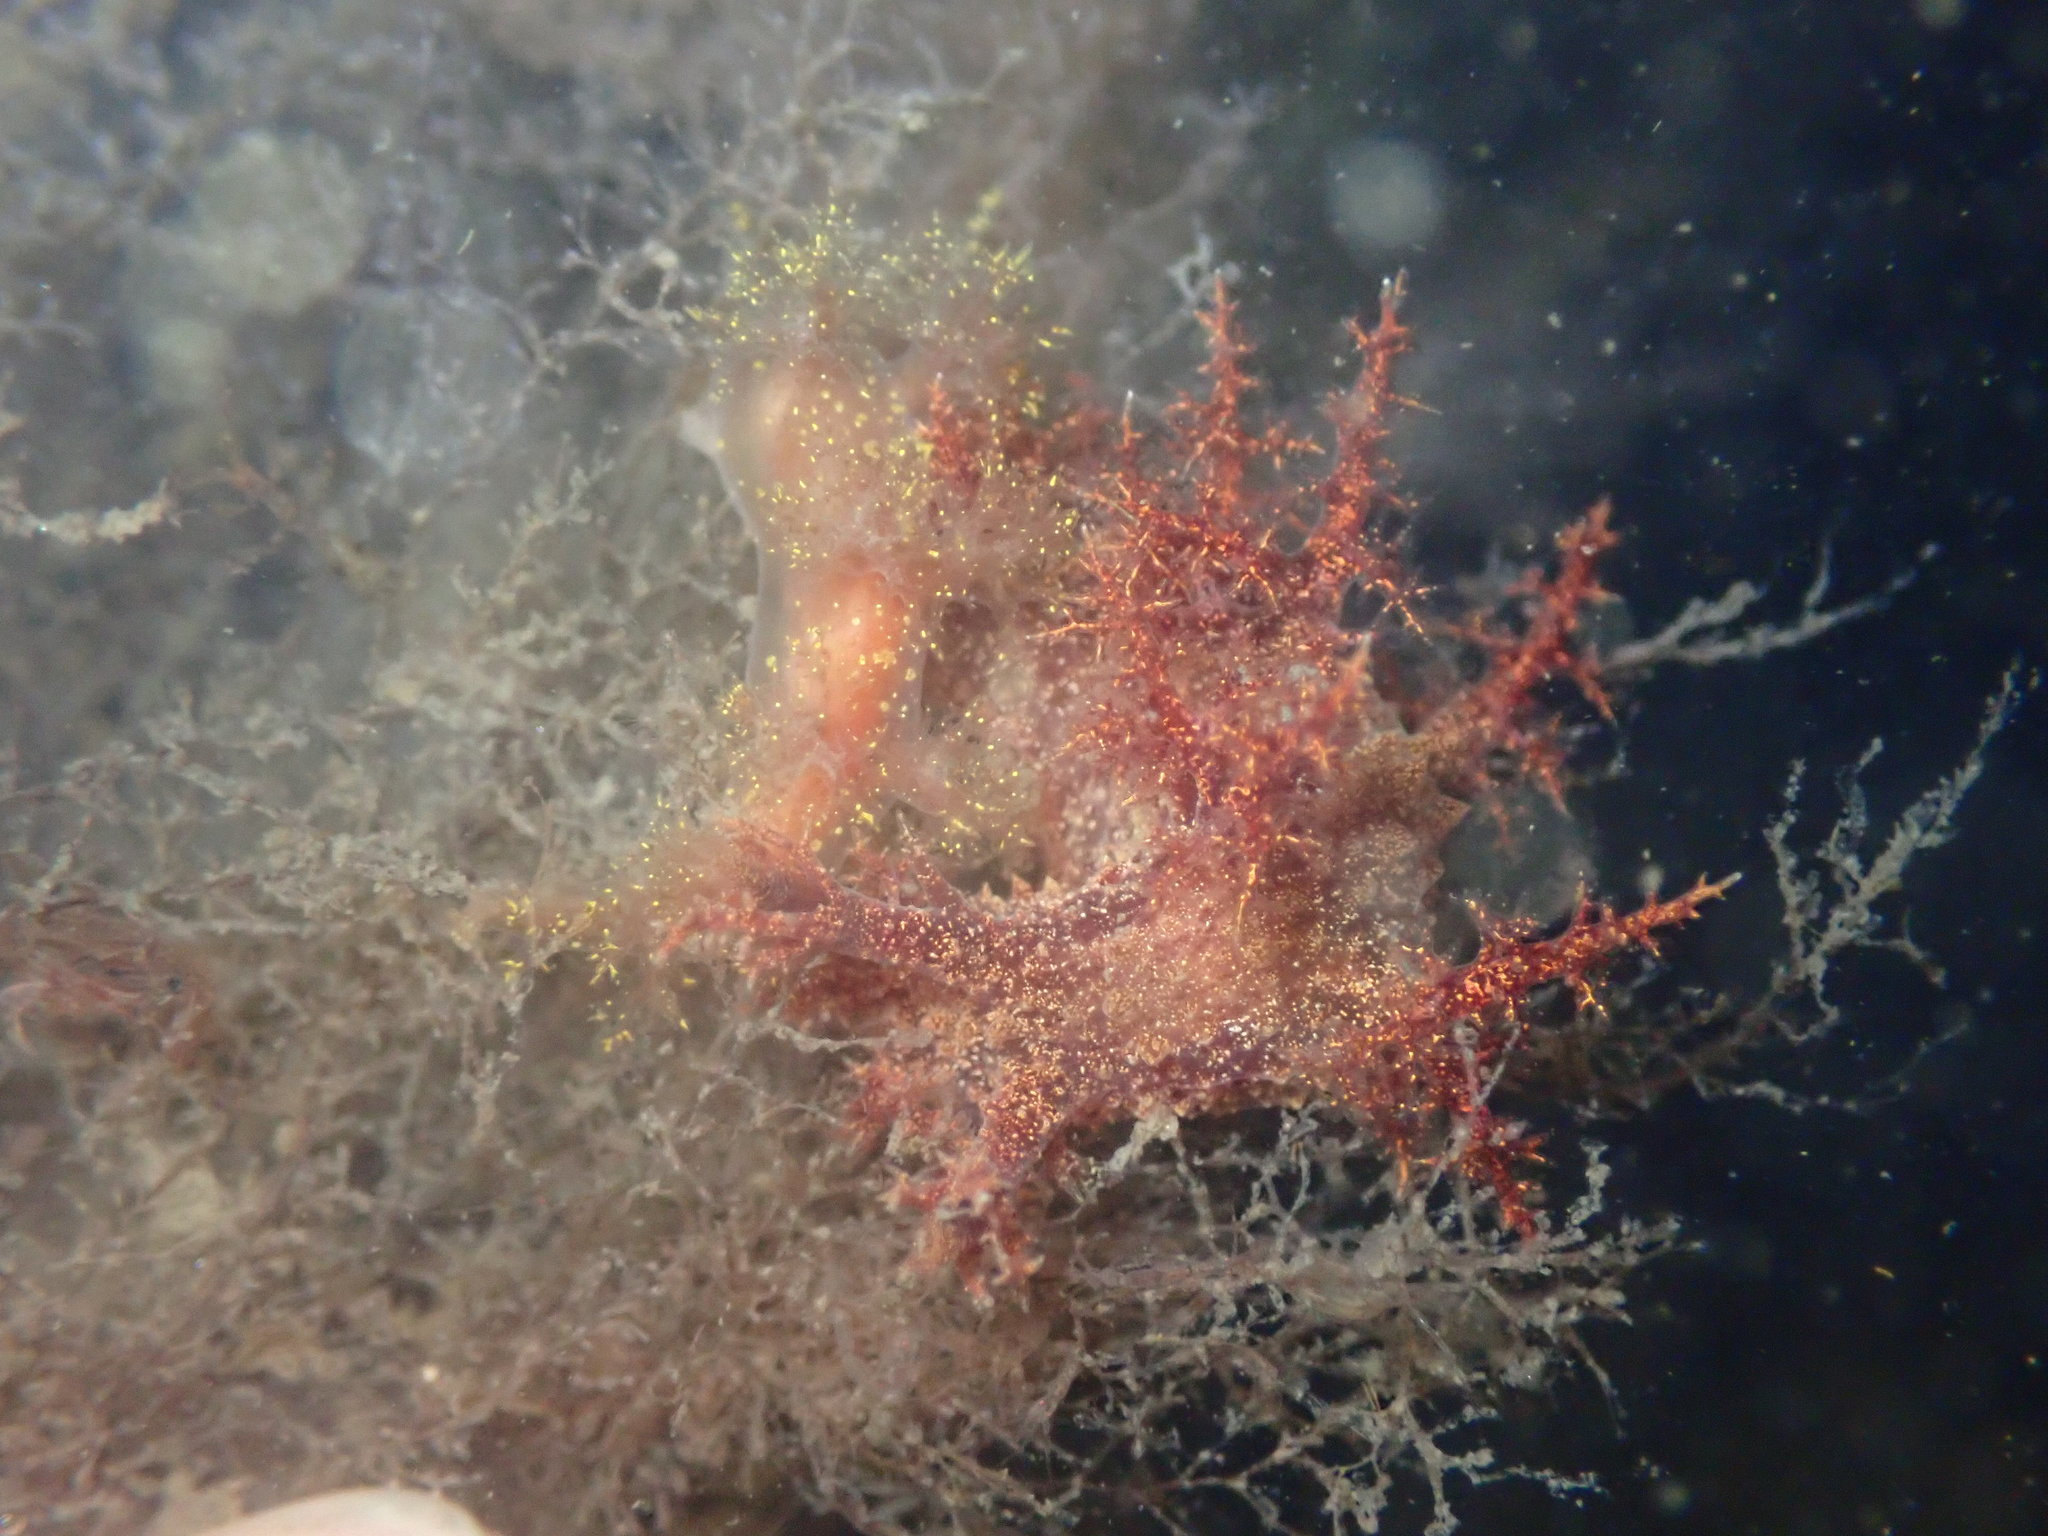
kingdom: Animalia
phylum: Mollusca
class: Gastropoda
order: Nudibranchia
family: Dendronotidae
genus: Dendronotus
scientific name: Dendronotus venustus
